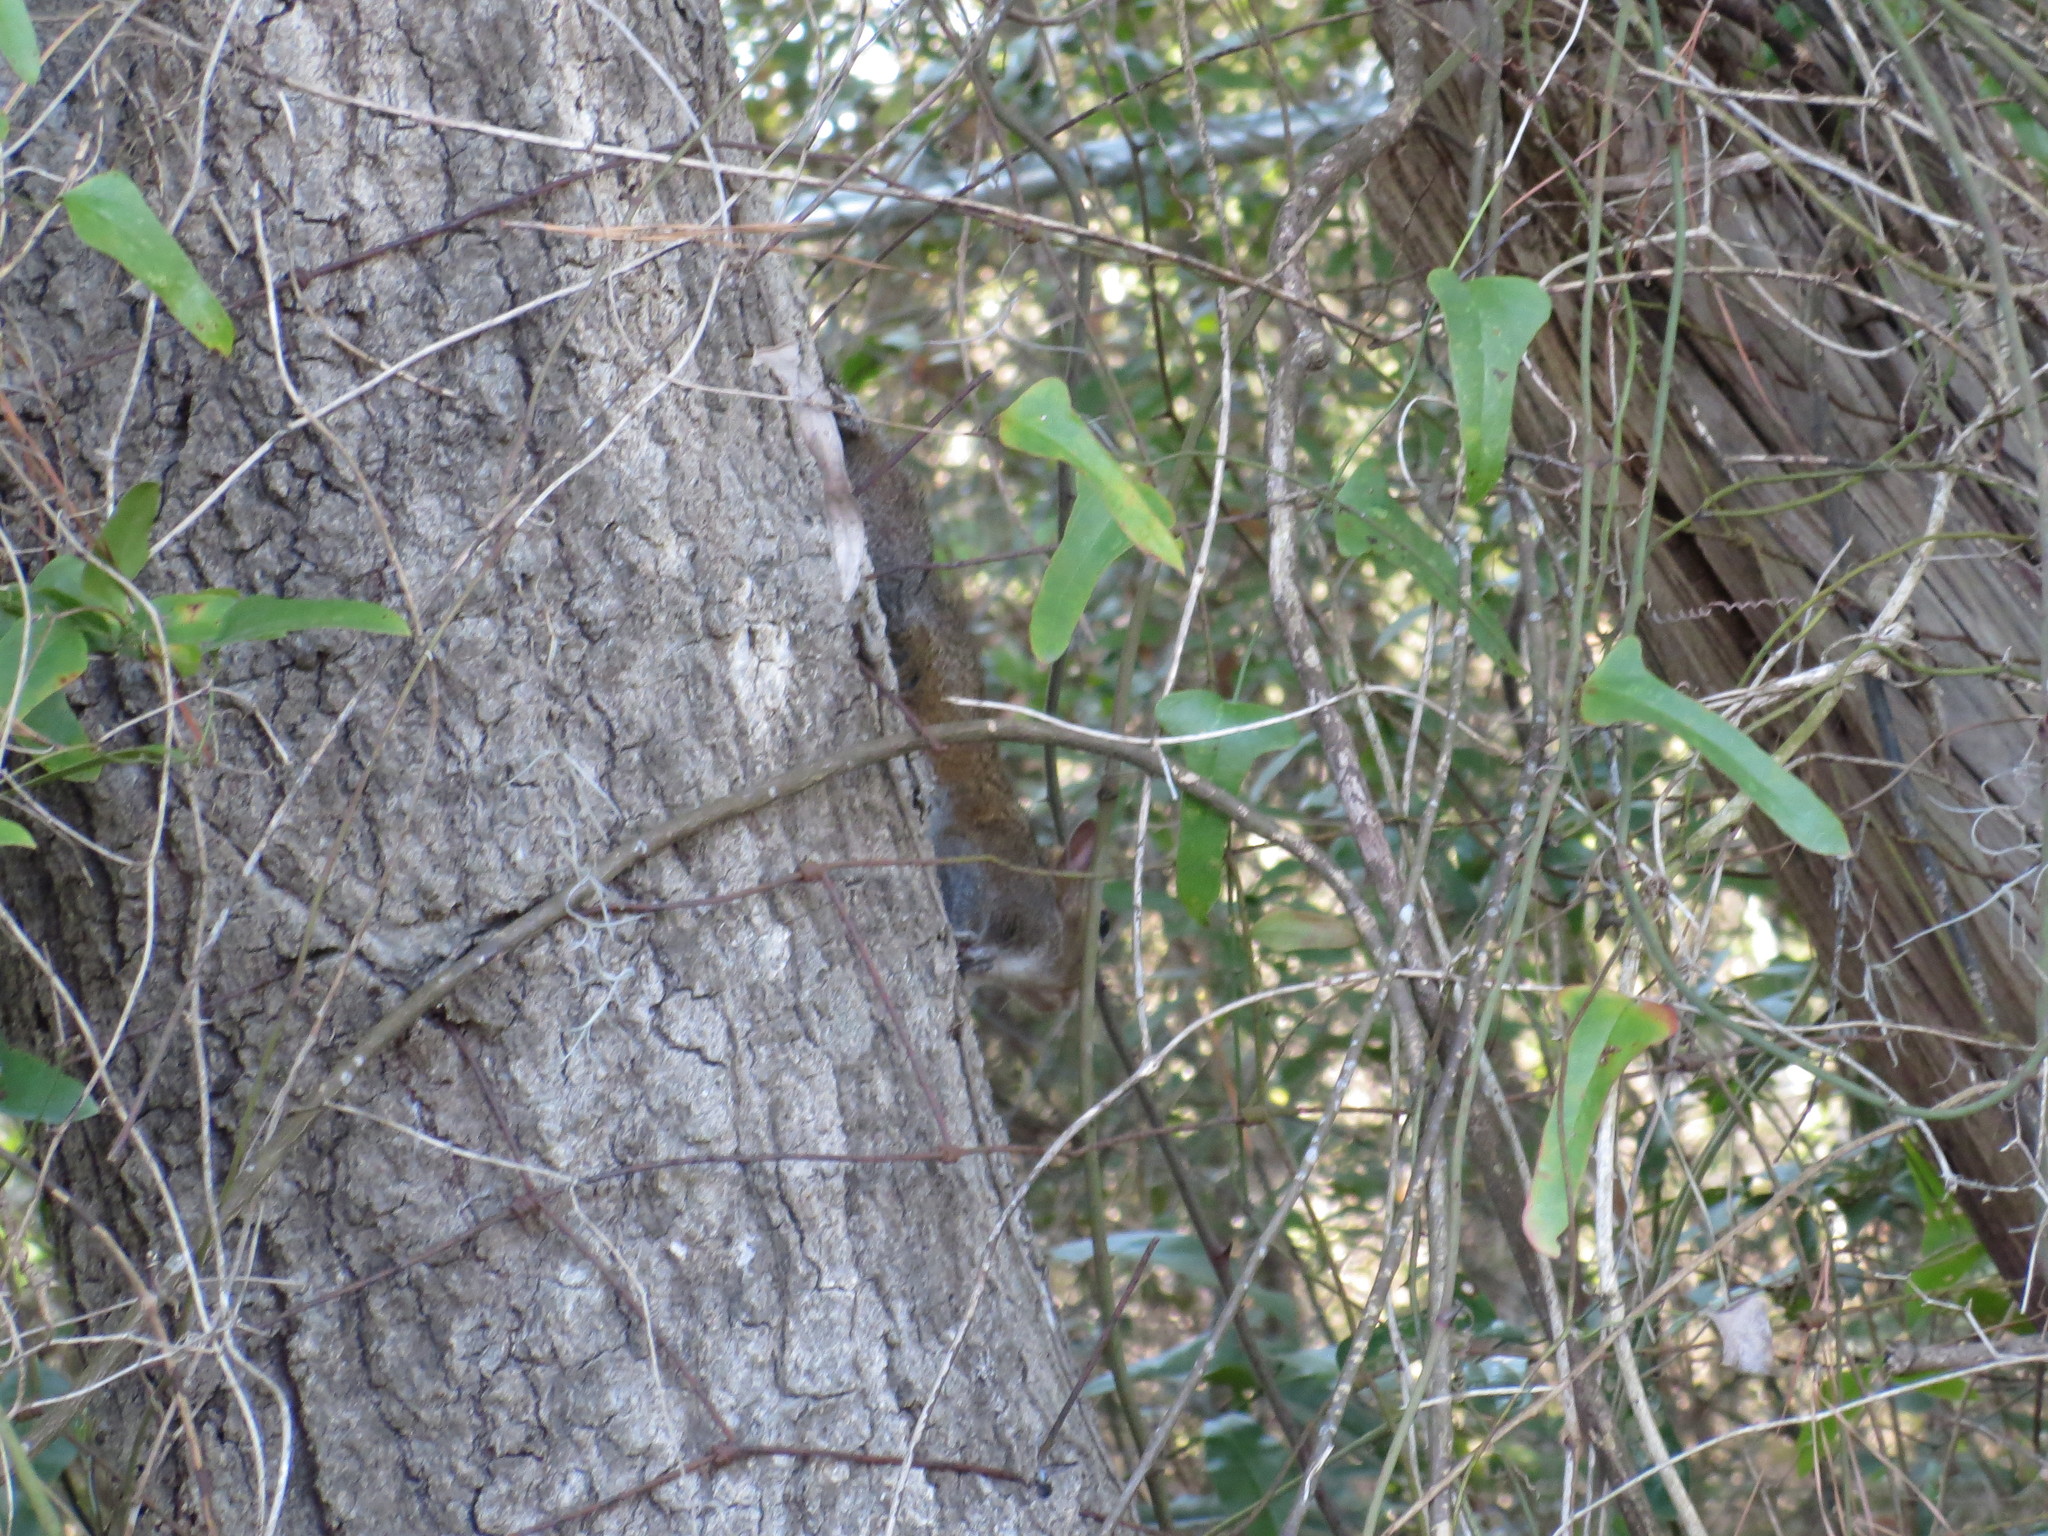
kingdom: Animalia
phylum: Chordata
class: Mammalia
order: Rodentia
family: Sciuridae
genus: Sciurus
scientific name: Sciurus carolinensis
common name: Eastern gray squirrel
